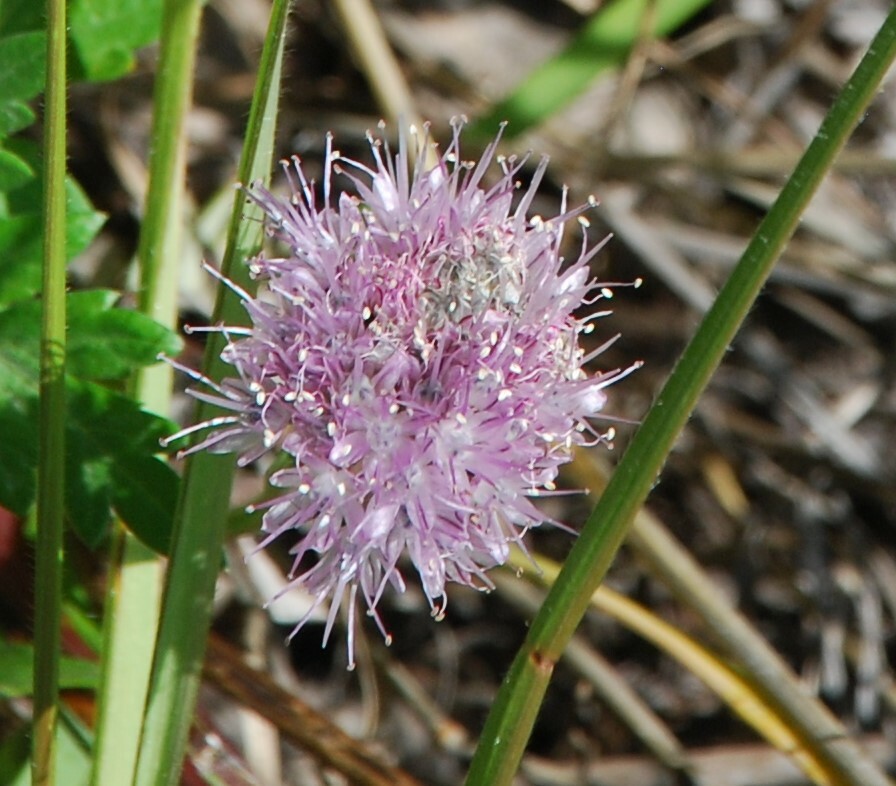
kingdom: Plantae
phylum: Tracheophyta
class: Liliopsida
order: Asparagales
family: Amaryllidaceae
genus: Allium
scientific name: Allium splendens
